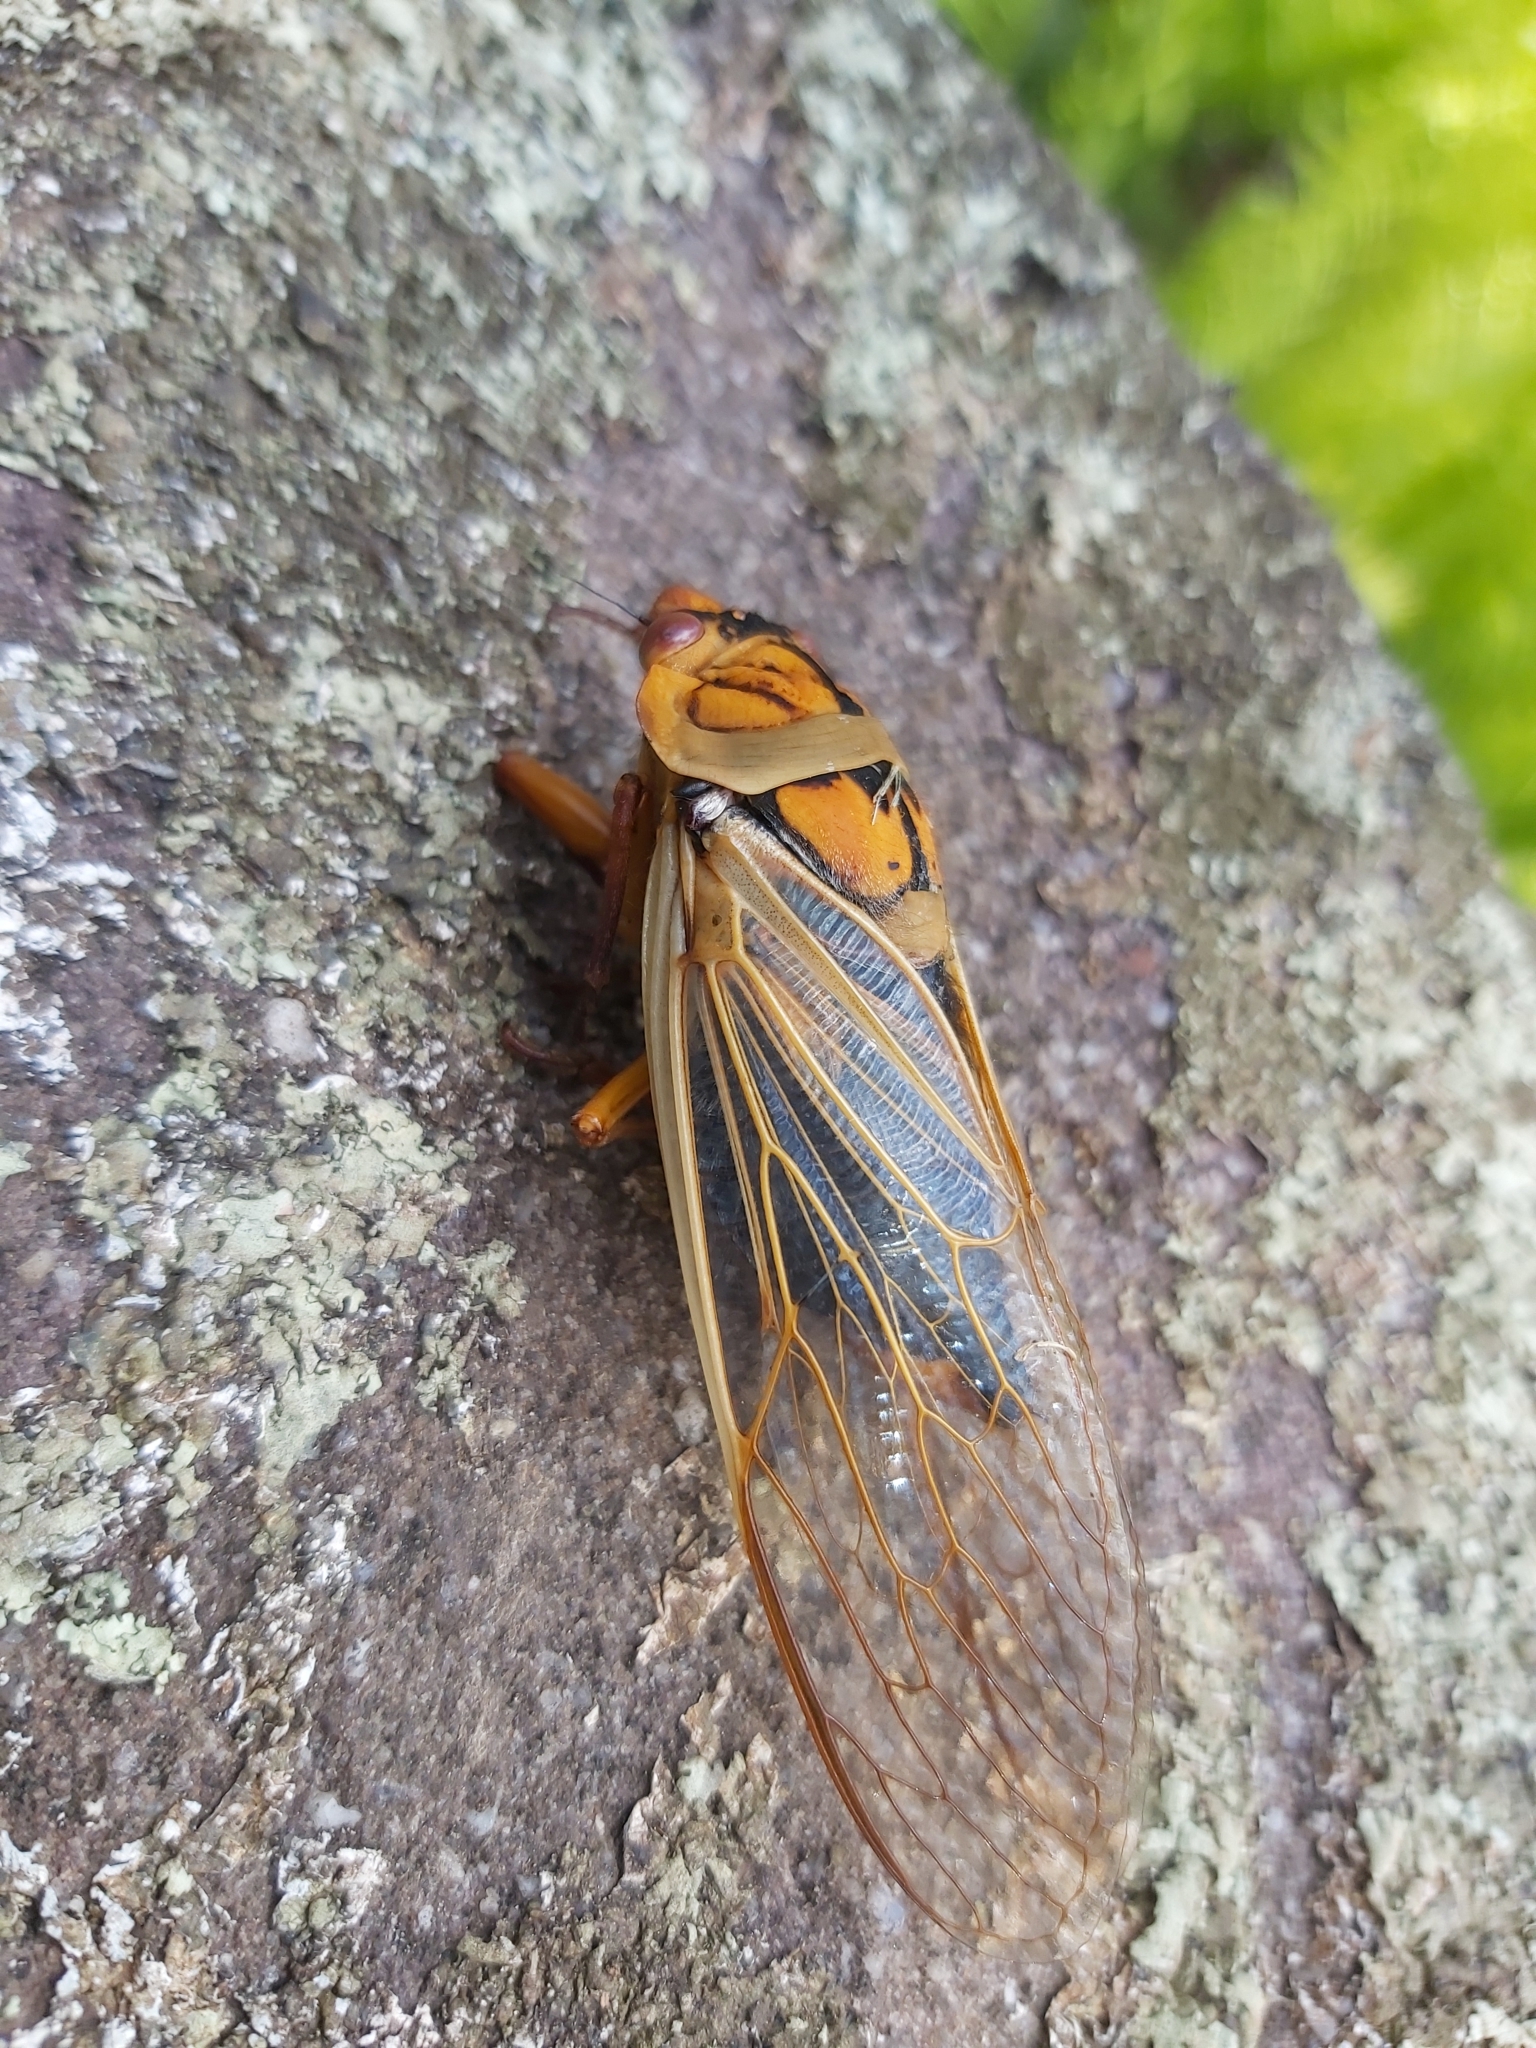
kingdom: Animalia
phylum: Arthropoda
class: Insecta
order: Hemiptera
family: Cicadidae
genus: Cyclochila
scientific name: Cyclochila australasiae
